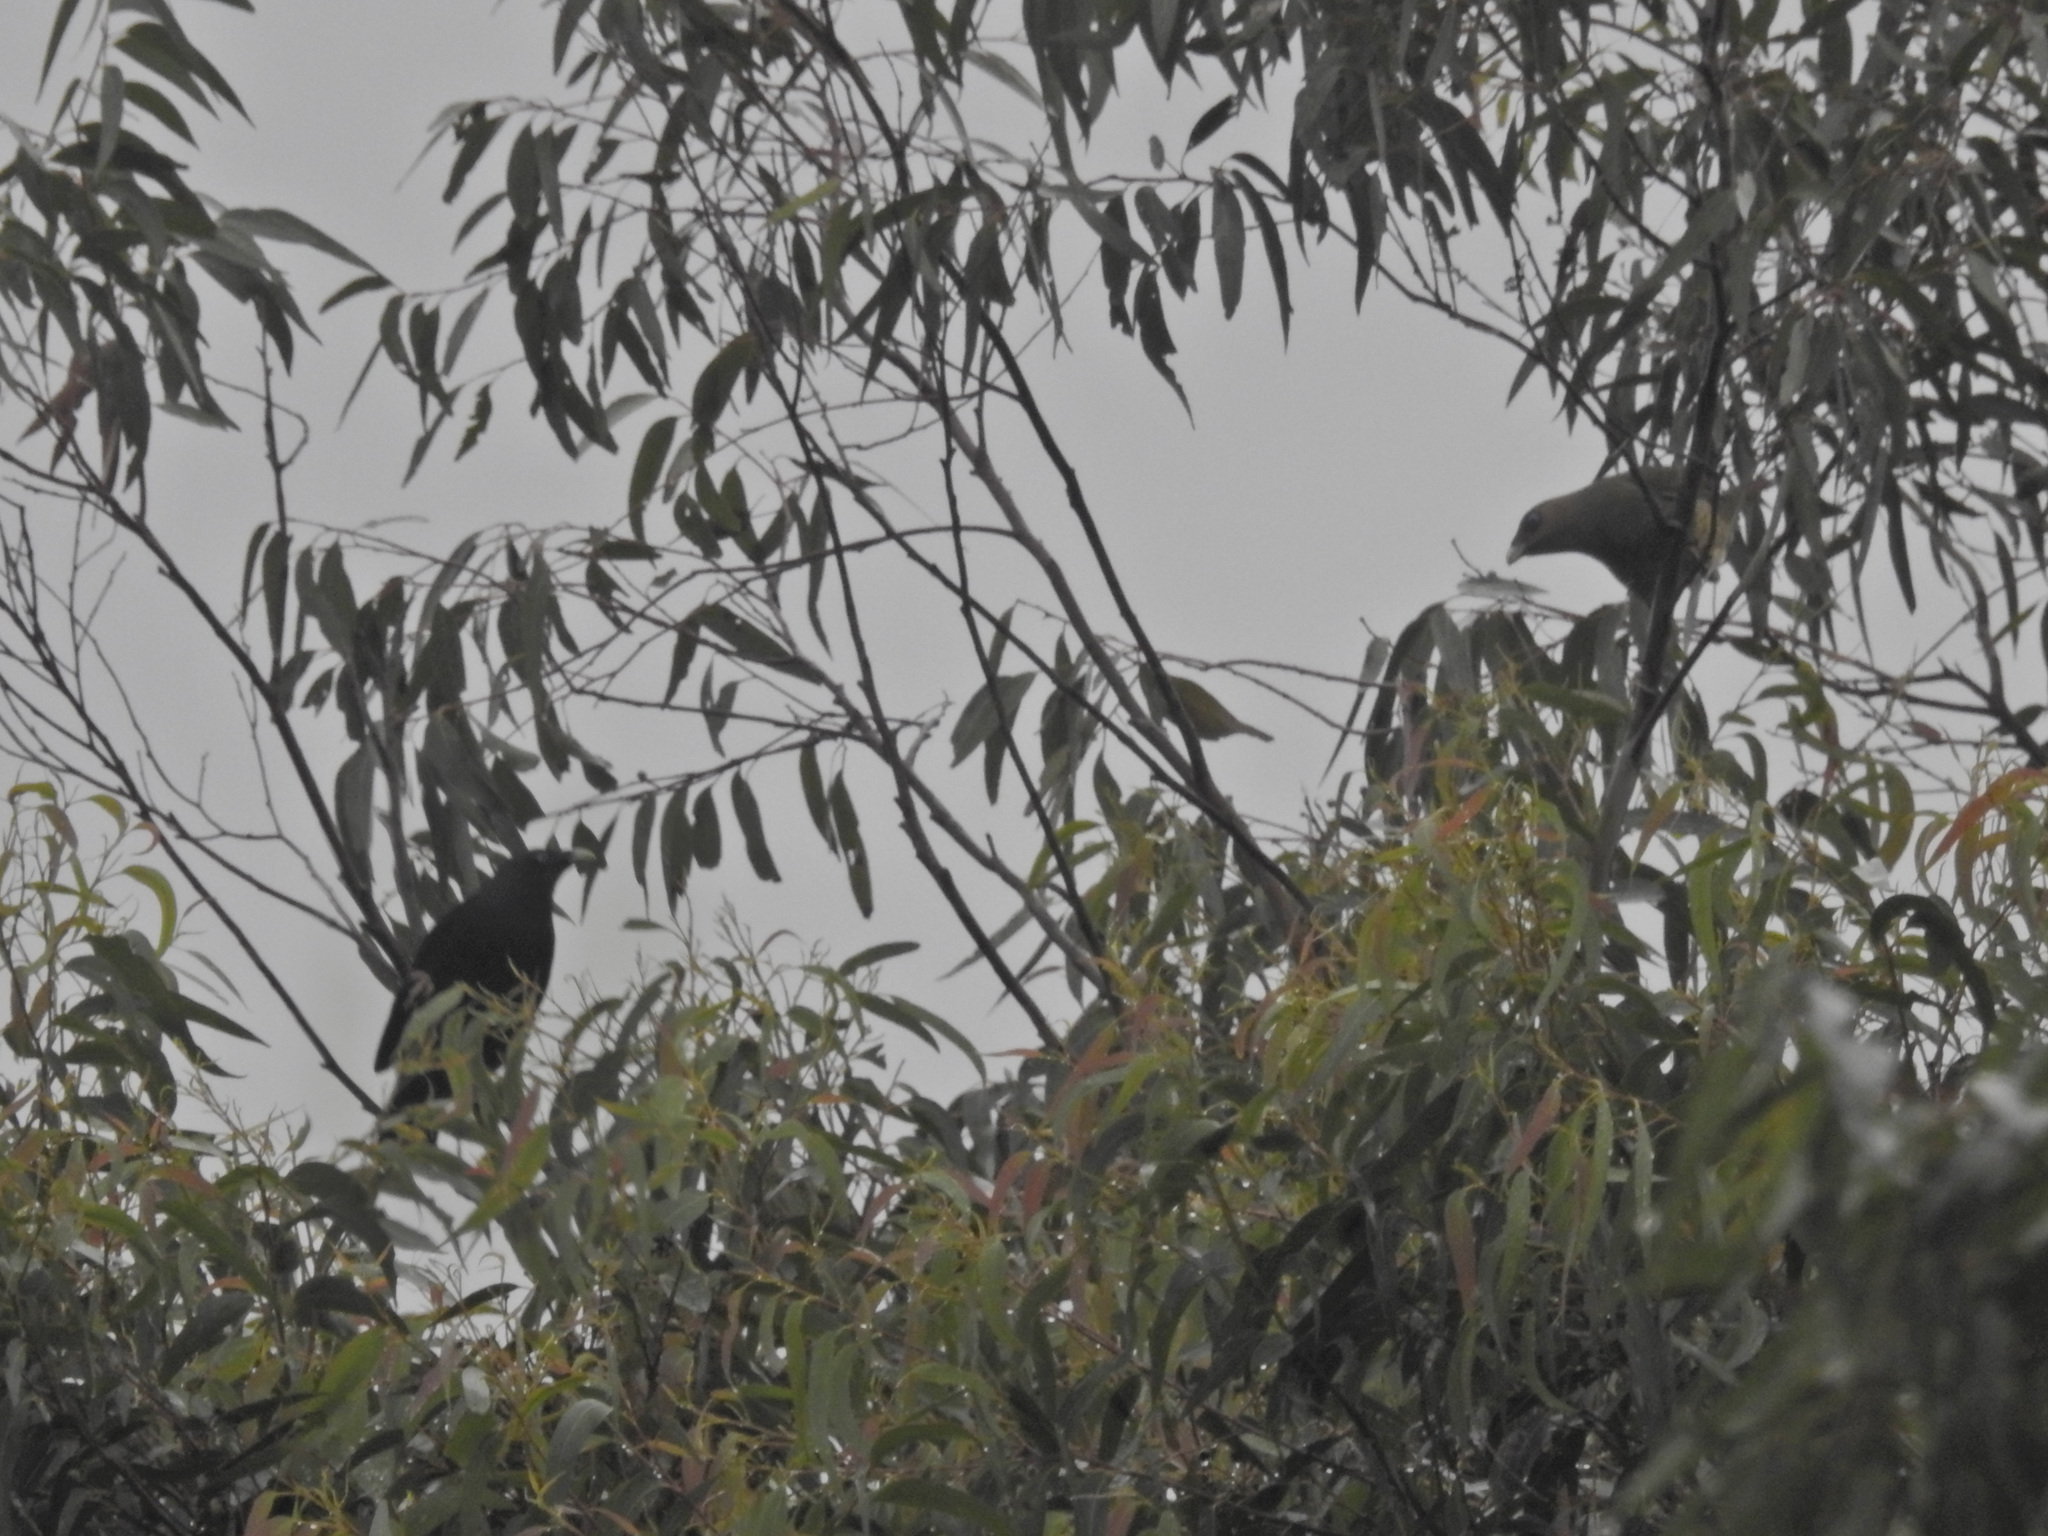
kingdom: Animalia
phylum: Chordata
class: Aves
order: Passeriformes
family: Ptilonorhynchidae
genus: Ptilonorhynchus
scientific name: Ptilonorhynchus violaceus
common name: Satin bowerbird
